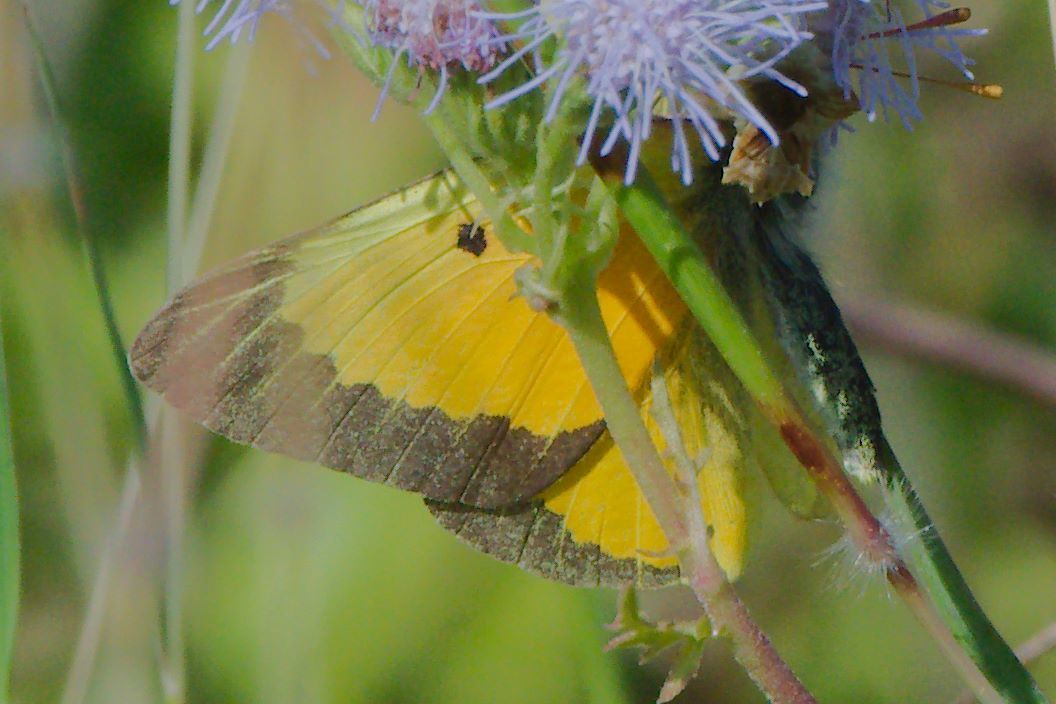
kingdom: Animalia
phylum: Arthropoda
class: Insecta
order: Lepidoptera
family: Pieridae
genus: Colias
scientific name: Colias eurytheme
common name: Alfalfa butterfly
